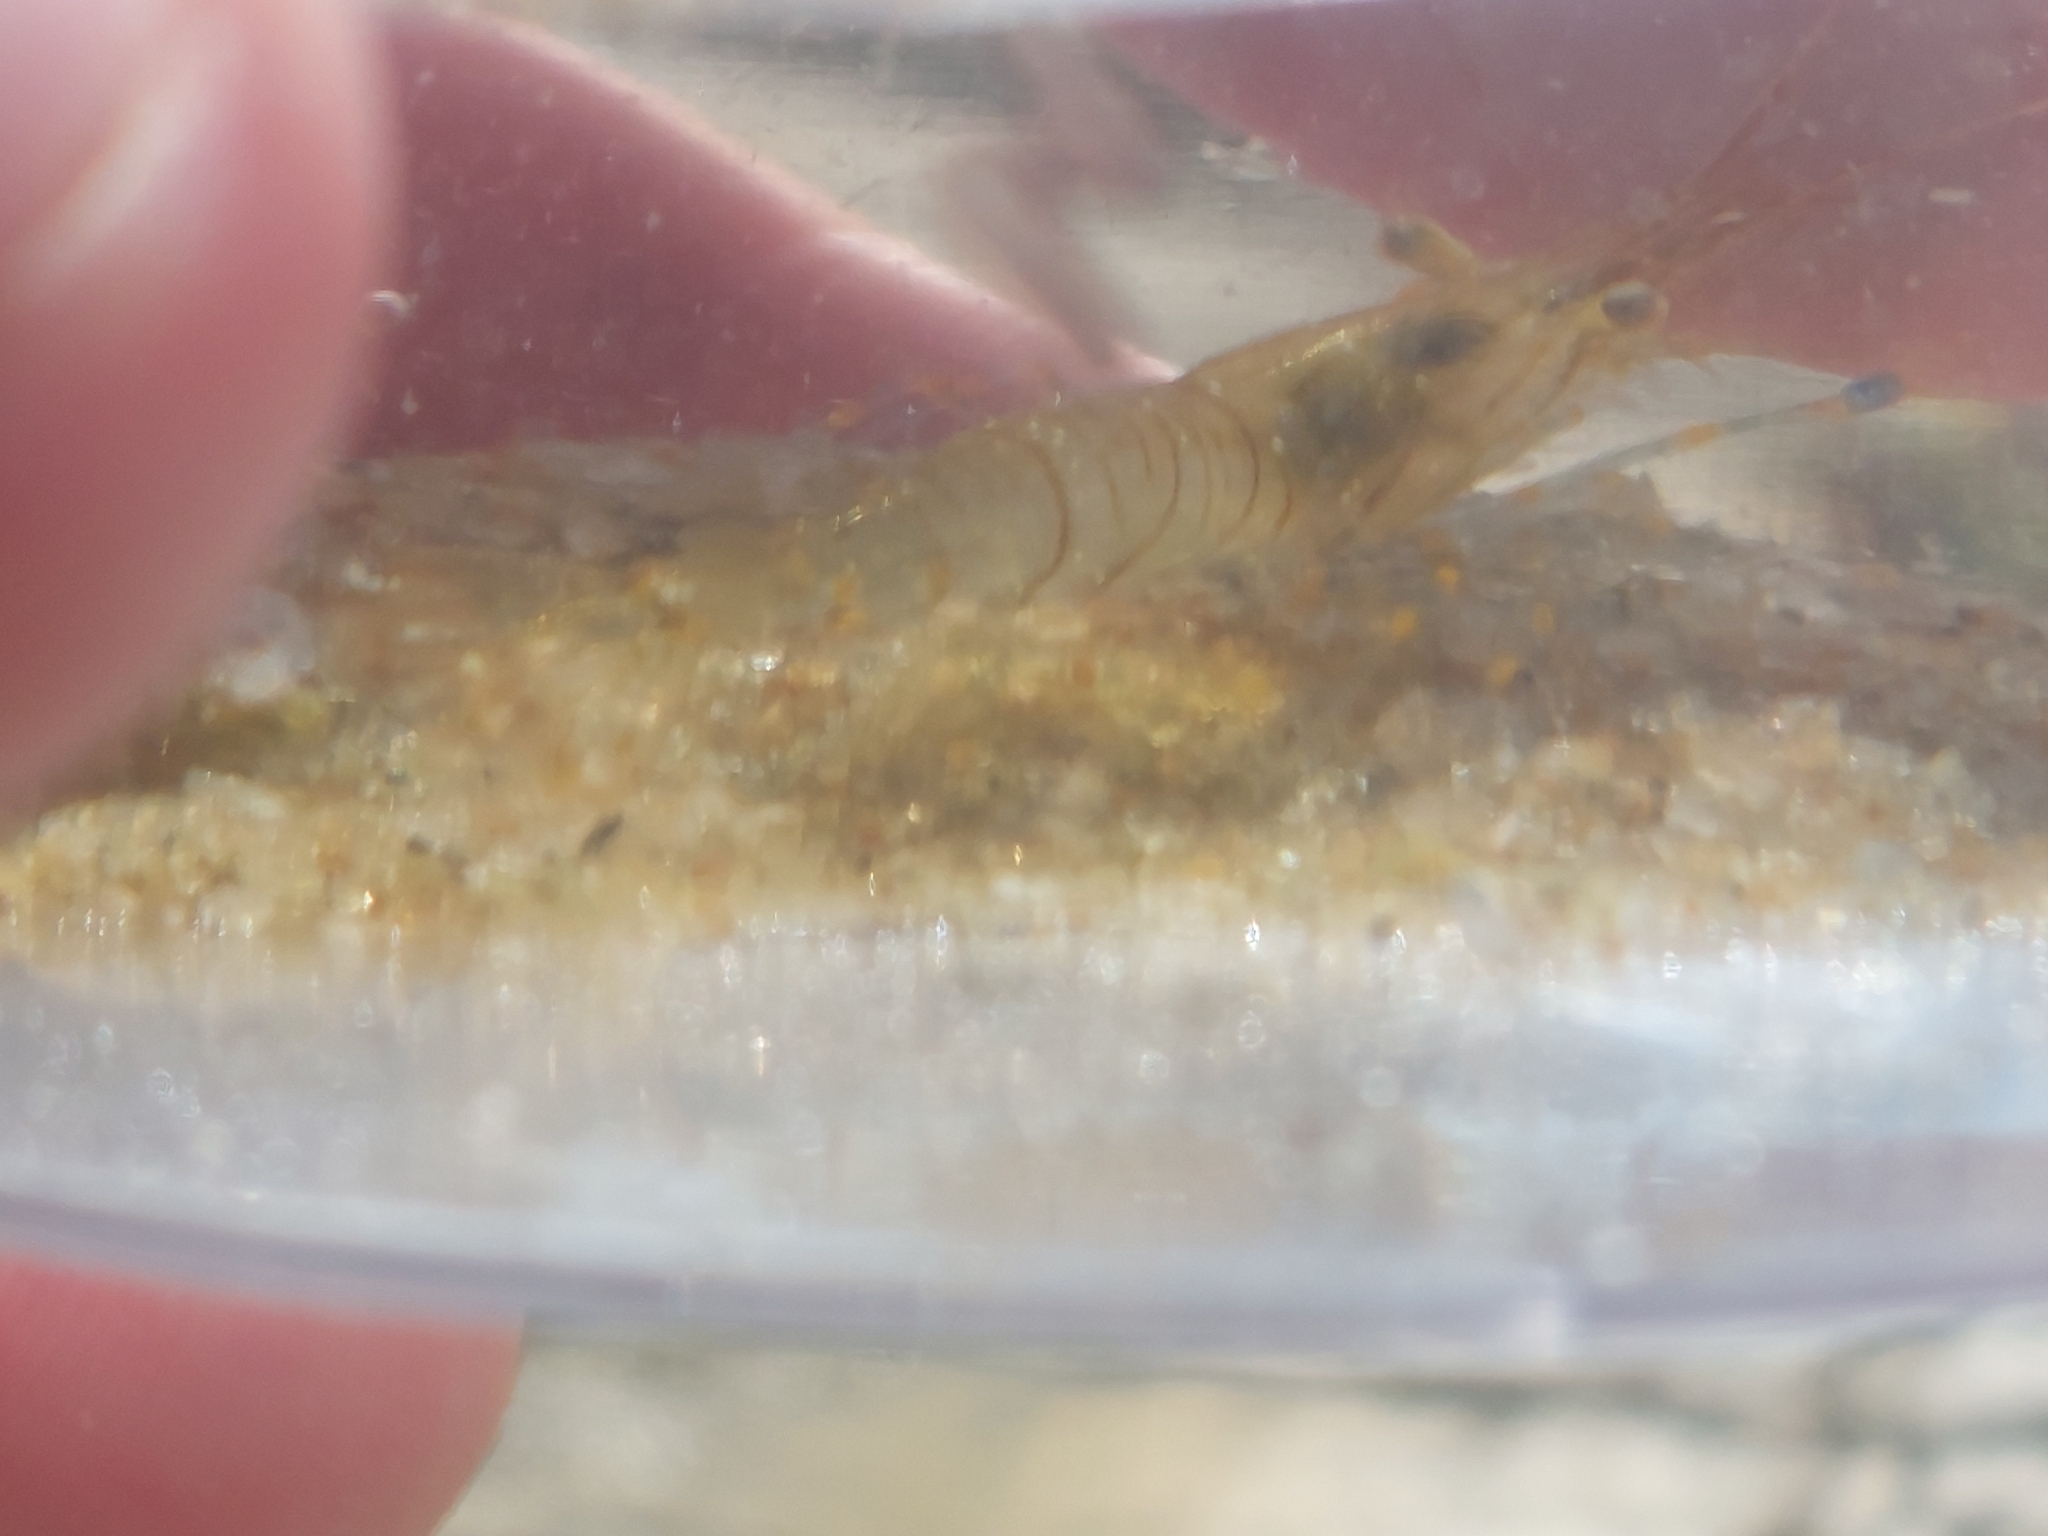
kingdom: Animalia
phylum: Arthropoda
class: Malacostraca
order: Decapoda
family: Palaemonidae
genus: Palaemon
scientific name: Palaemon elegans
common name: Grass prawm
